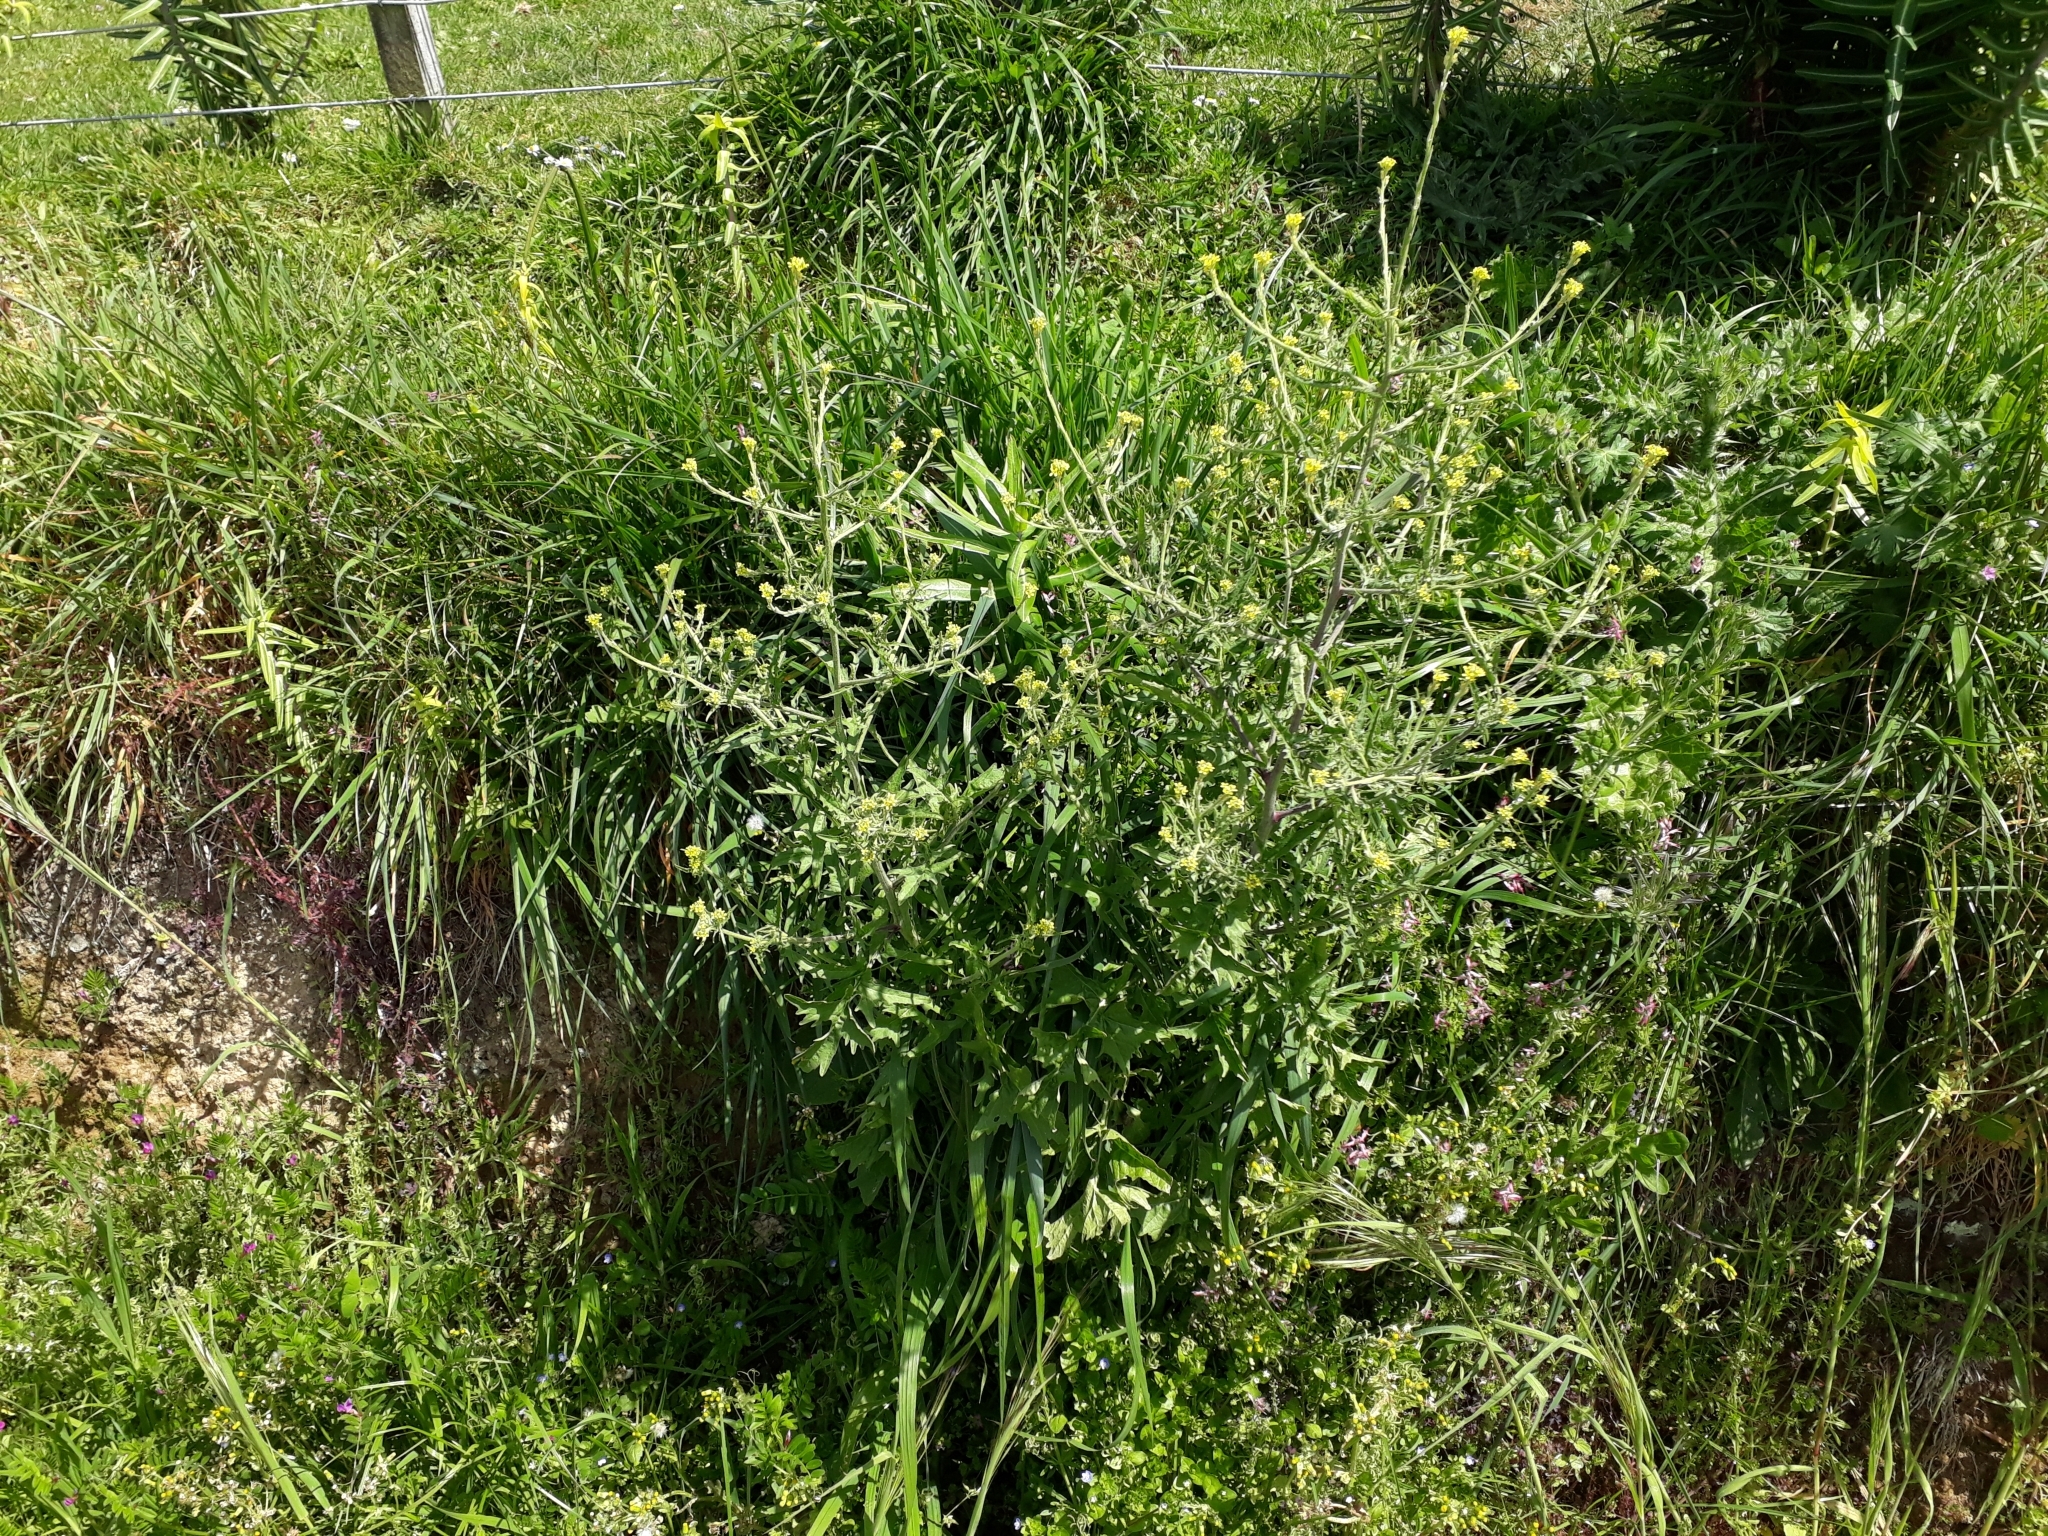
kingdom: Plantae
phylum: Tracheophyta
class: Magnoliopsida
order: Brassicales
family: Brassicaceae
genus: Sisymbrium
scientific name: Sisymbrium officinale
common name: Hedge mustard
